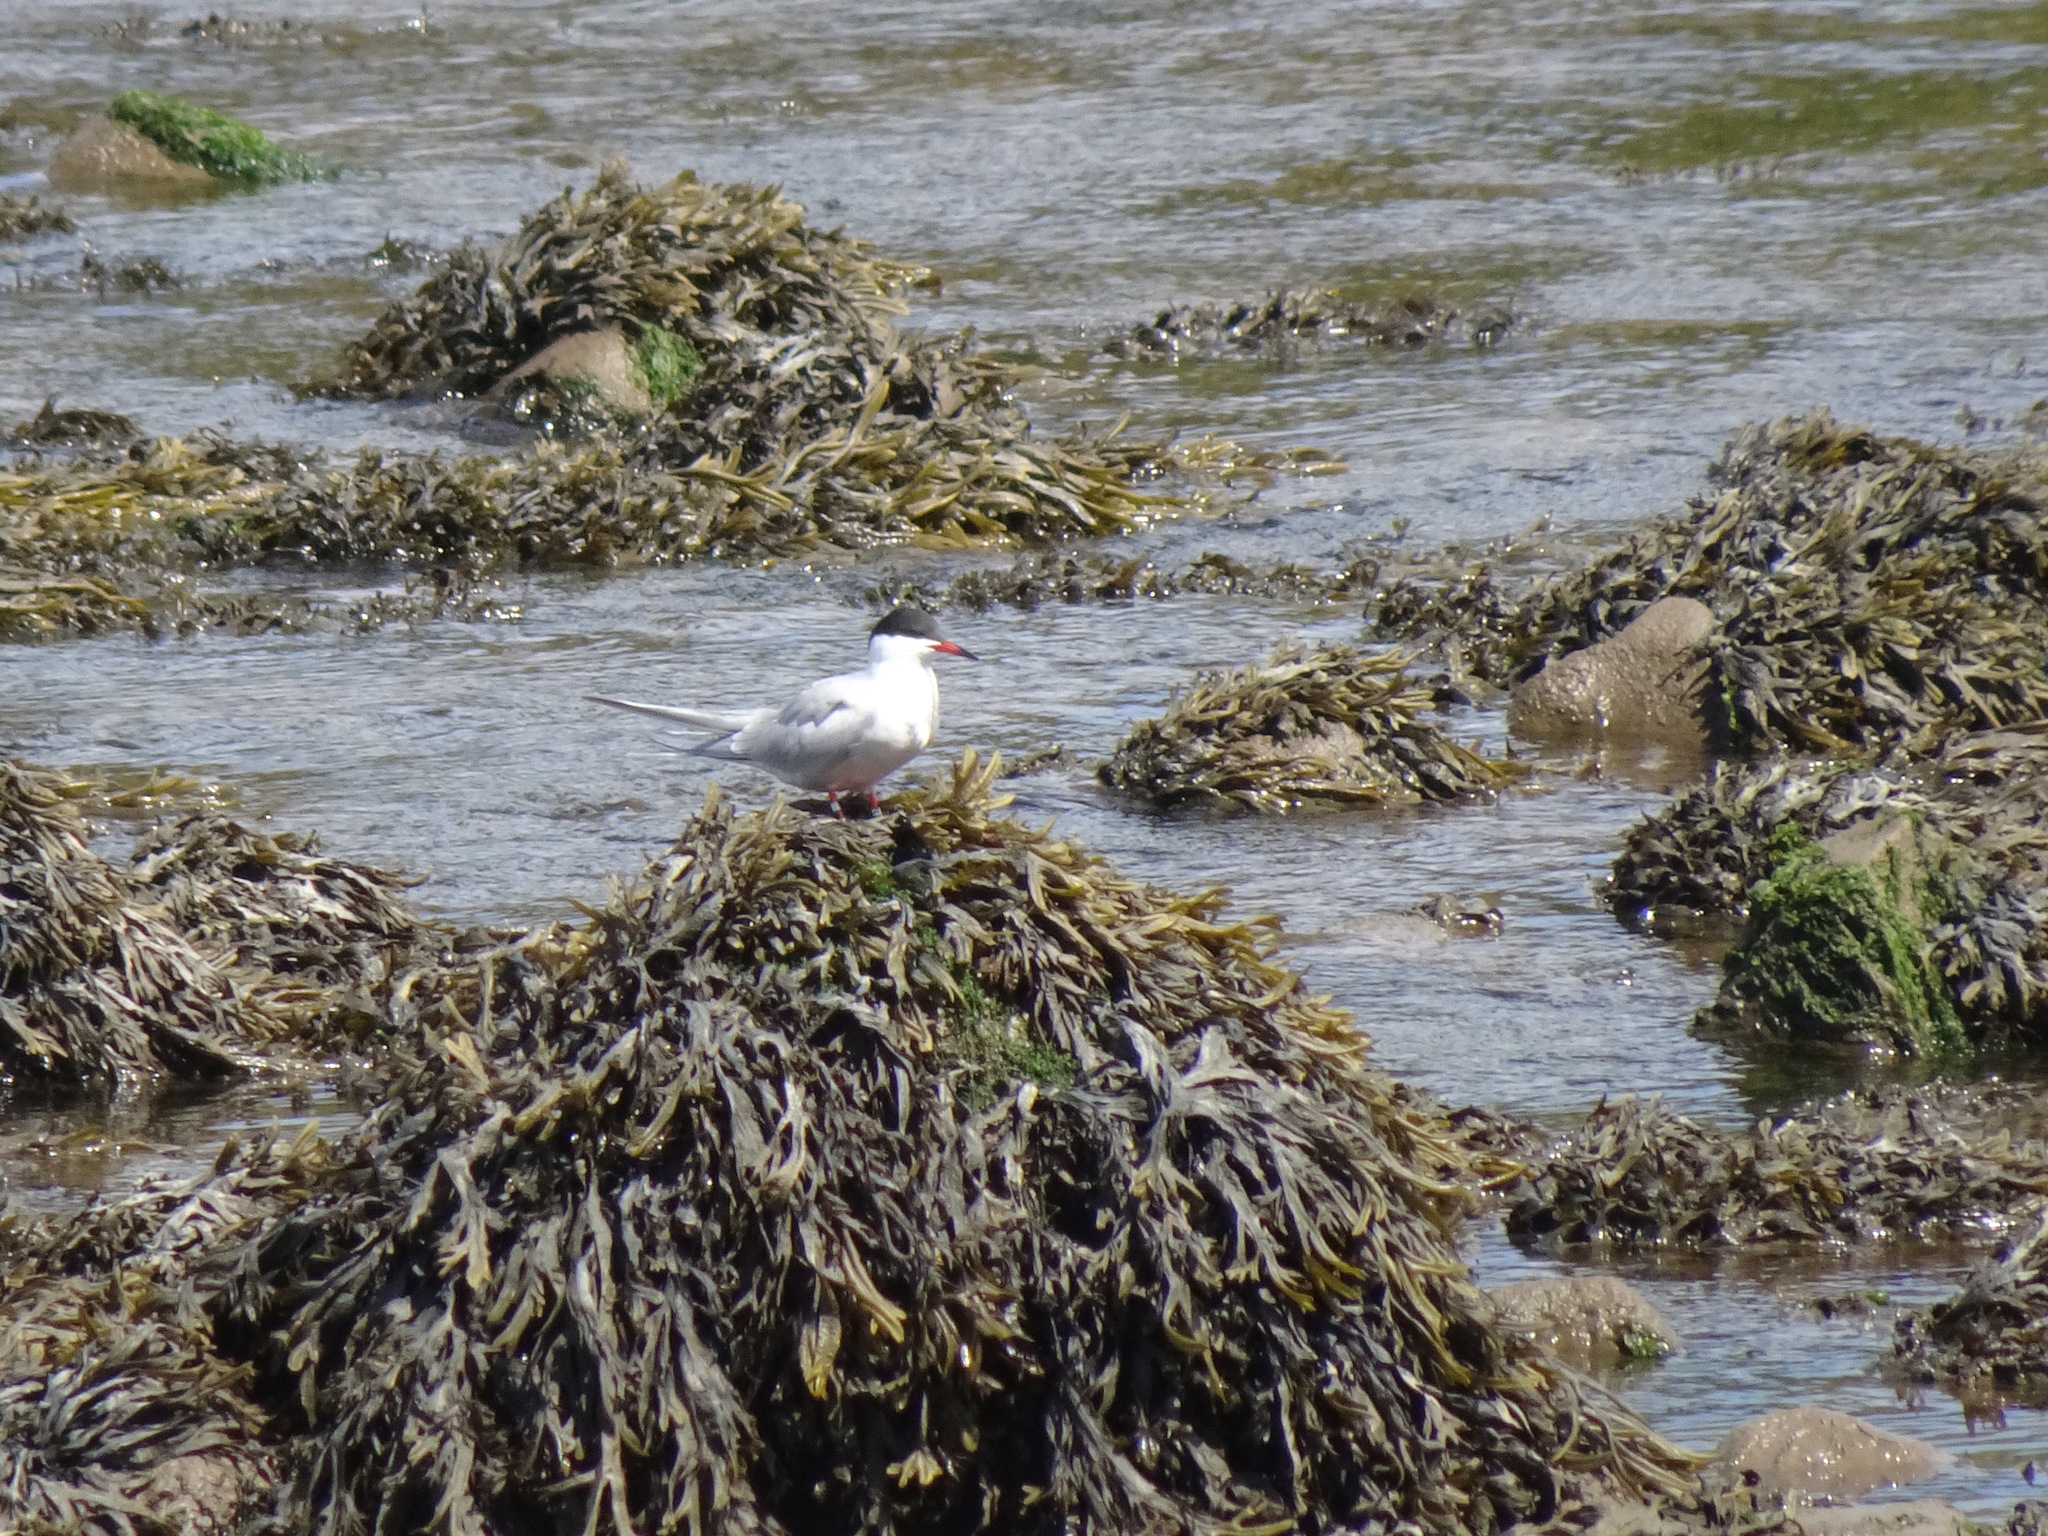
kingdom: Animalia
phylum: Chordata
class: Aves
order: Charadriiformes
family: Laridae
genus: Sterna
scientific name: Sterna hirundo
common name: Common tern
